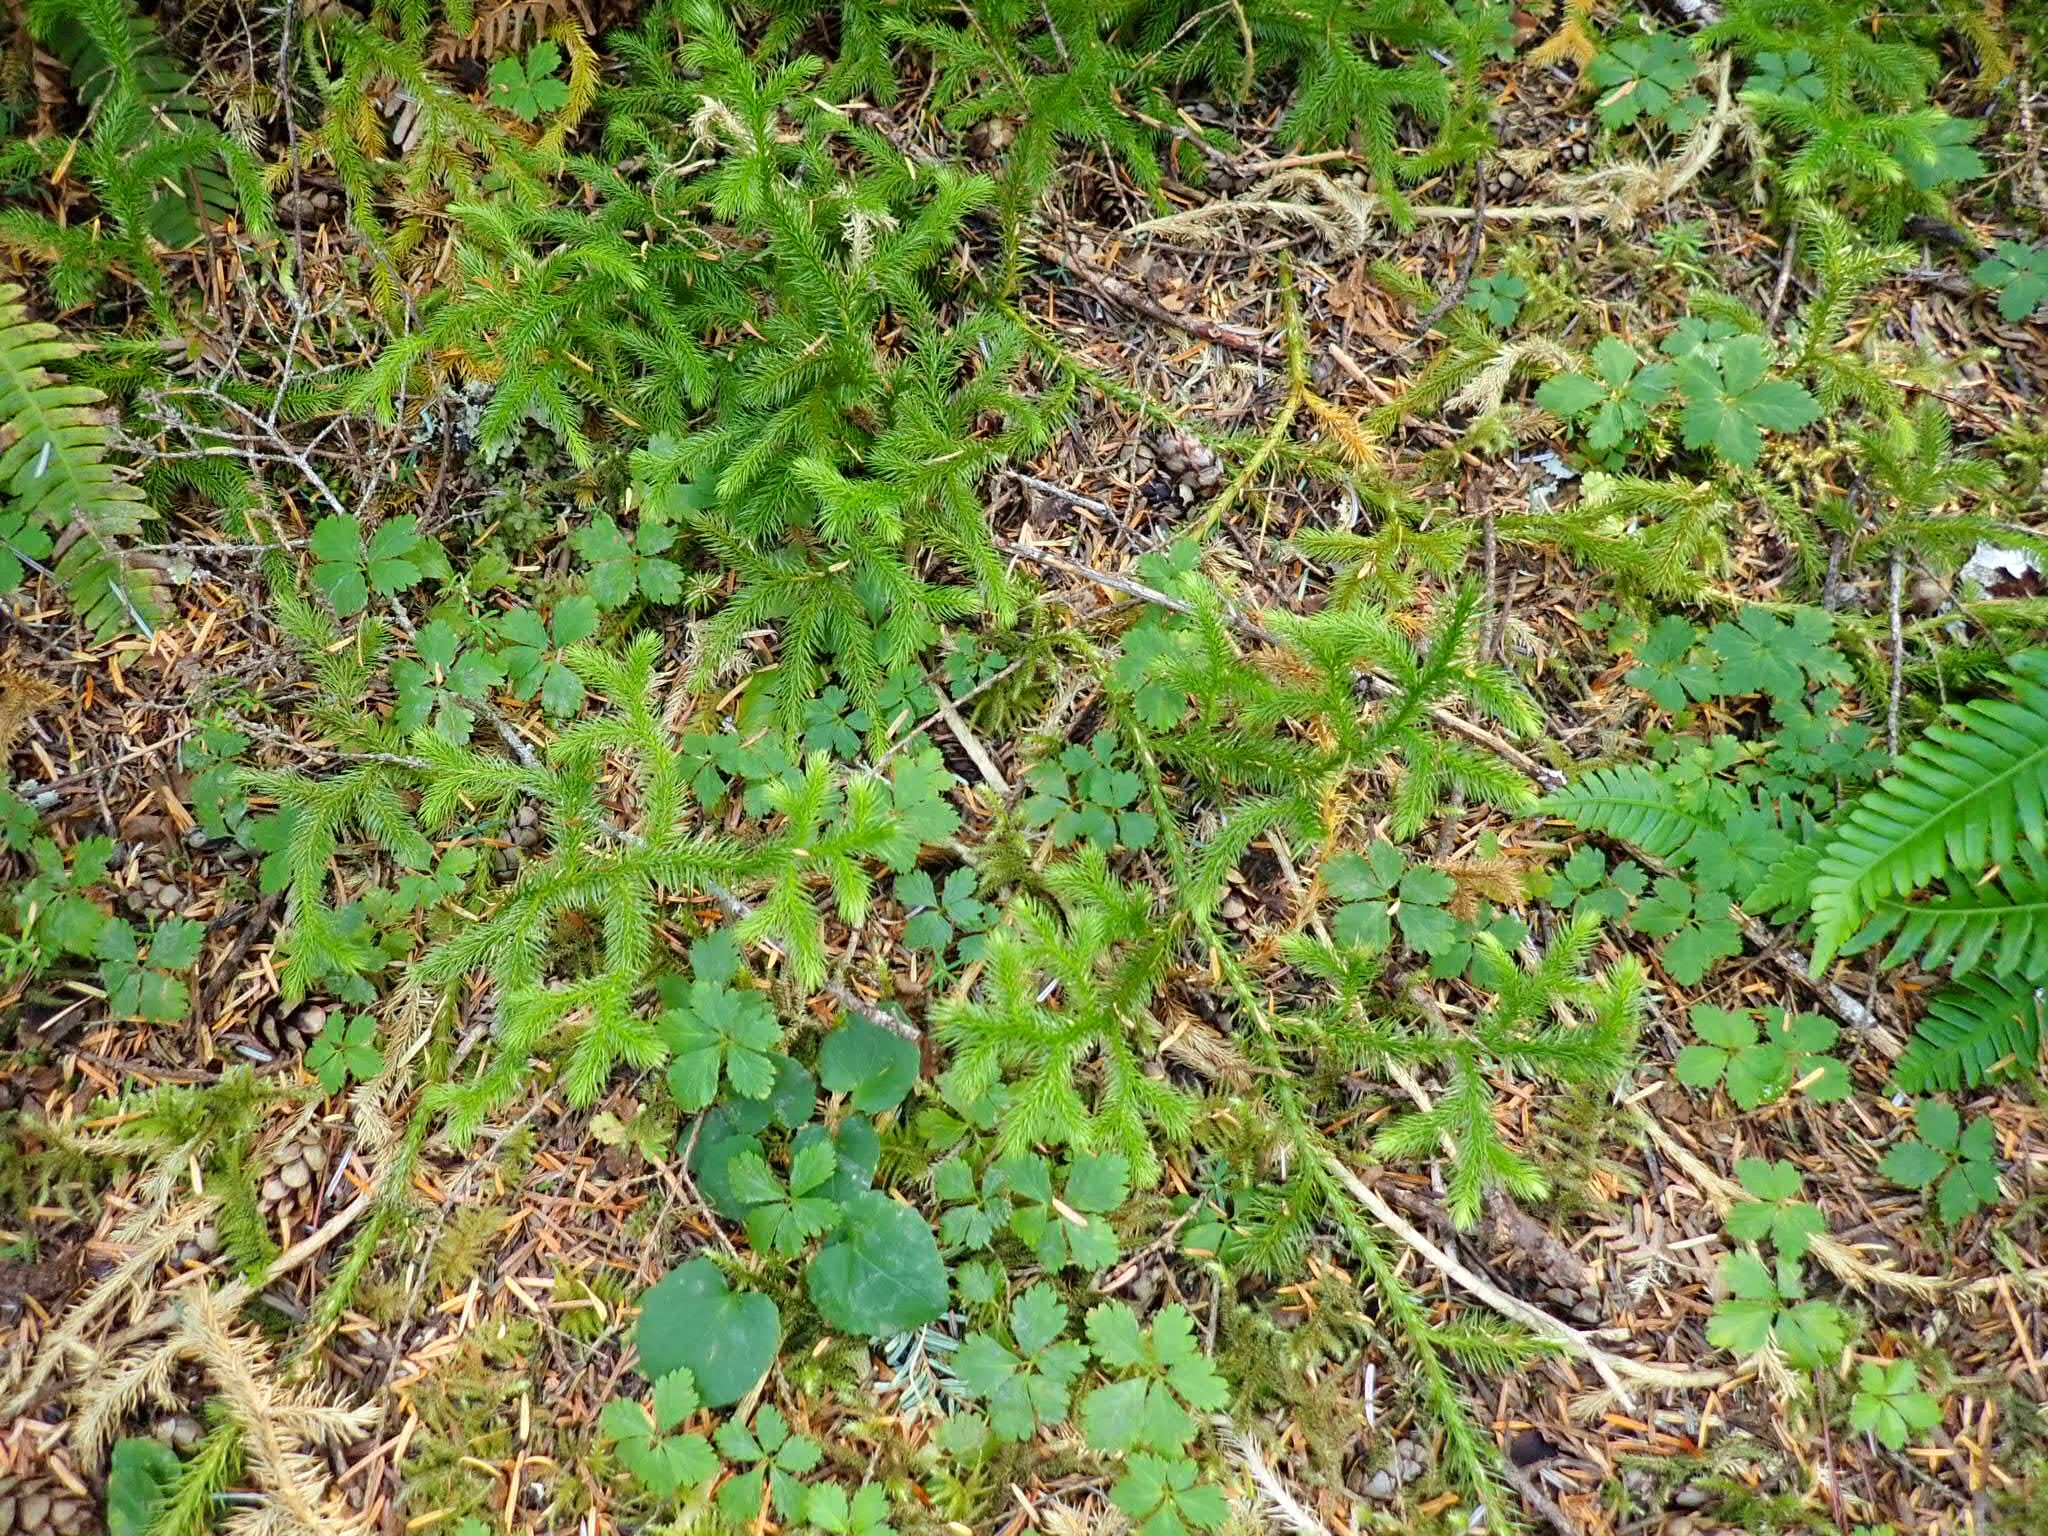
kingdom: Plantae
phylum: Tracheophyta
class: Lycopodiopsida
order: Lycopodiales
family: Lycopodiaceae
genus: Lycopodium
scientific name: Lycopodium clavatum
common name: Stag's-horn clubmoss
